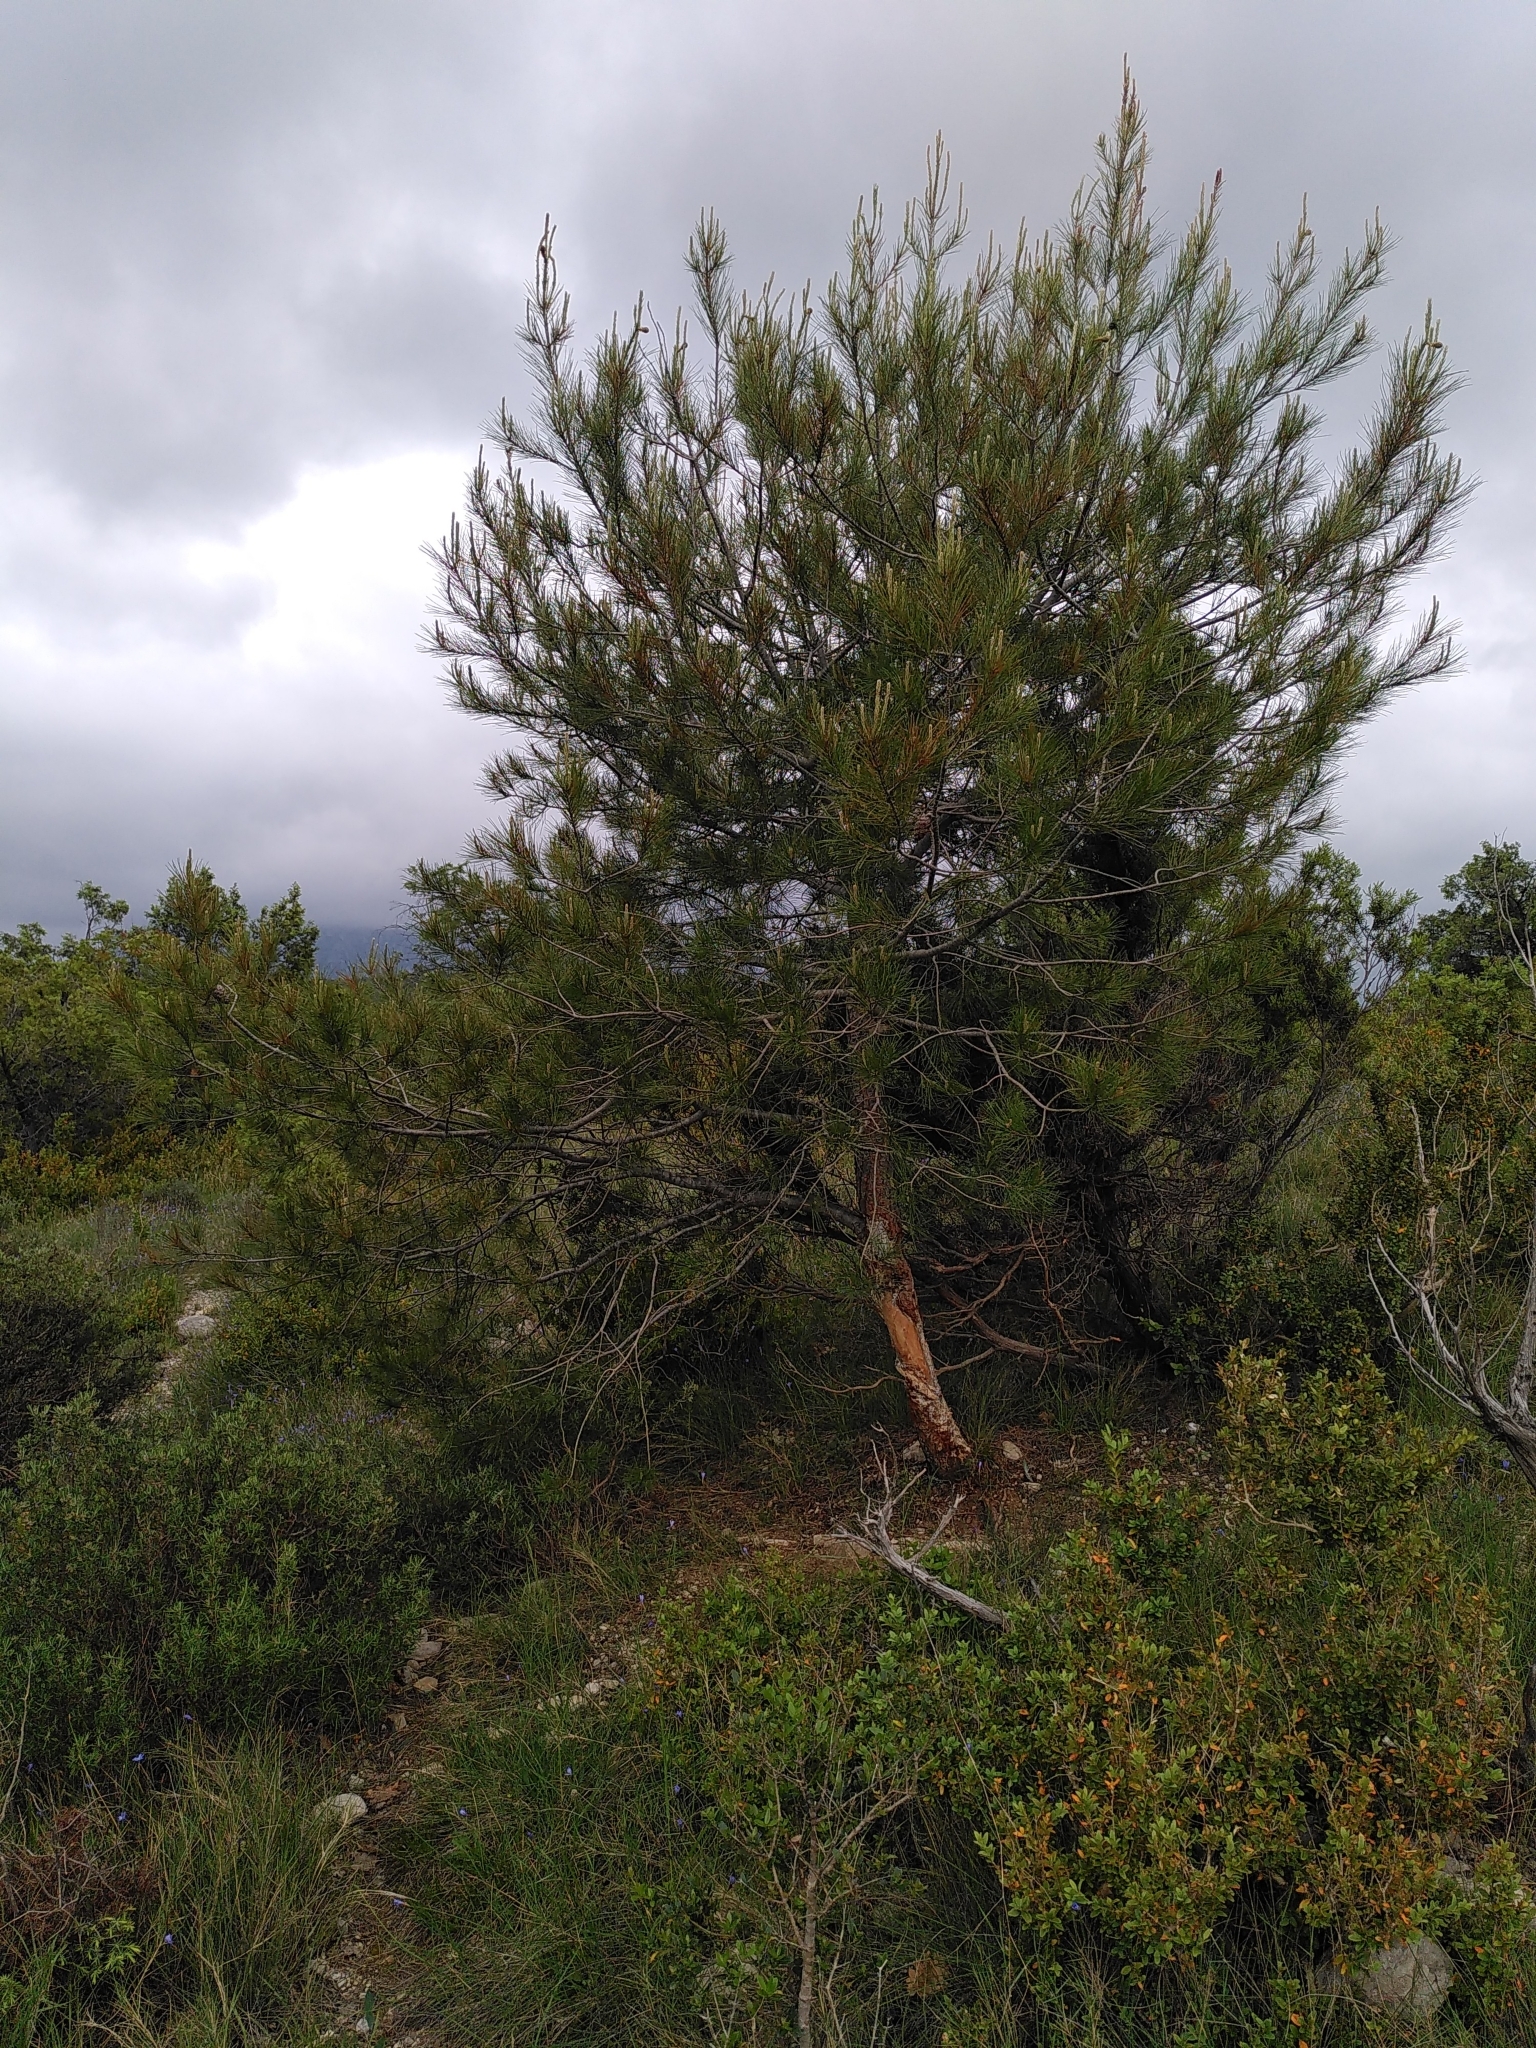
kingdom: Plantae
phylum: Tracheophyta
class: Pinopsida
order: Pinales
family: Pinaceae
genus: Pinus
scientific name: Pinus halepensis
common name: Aleppo pine
